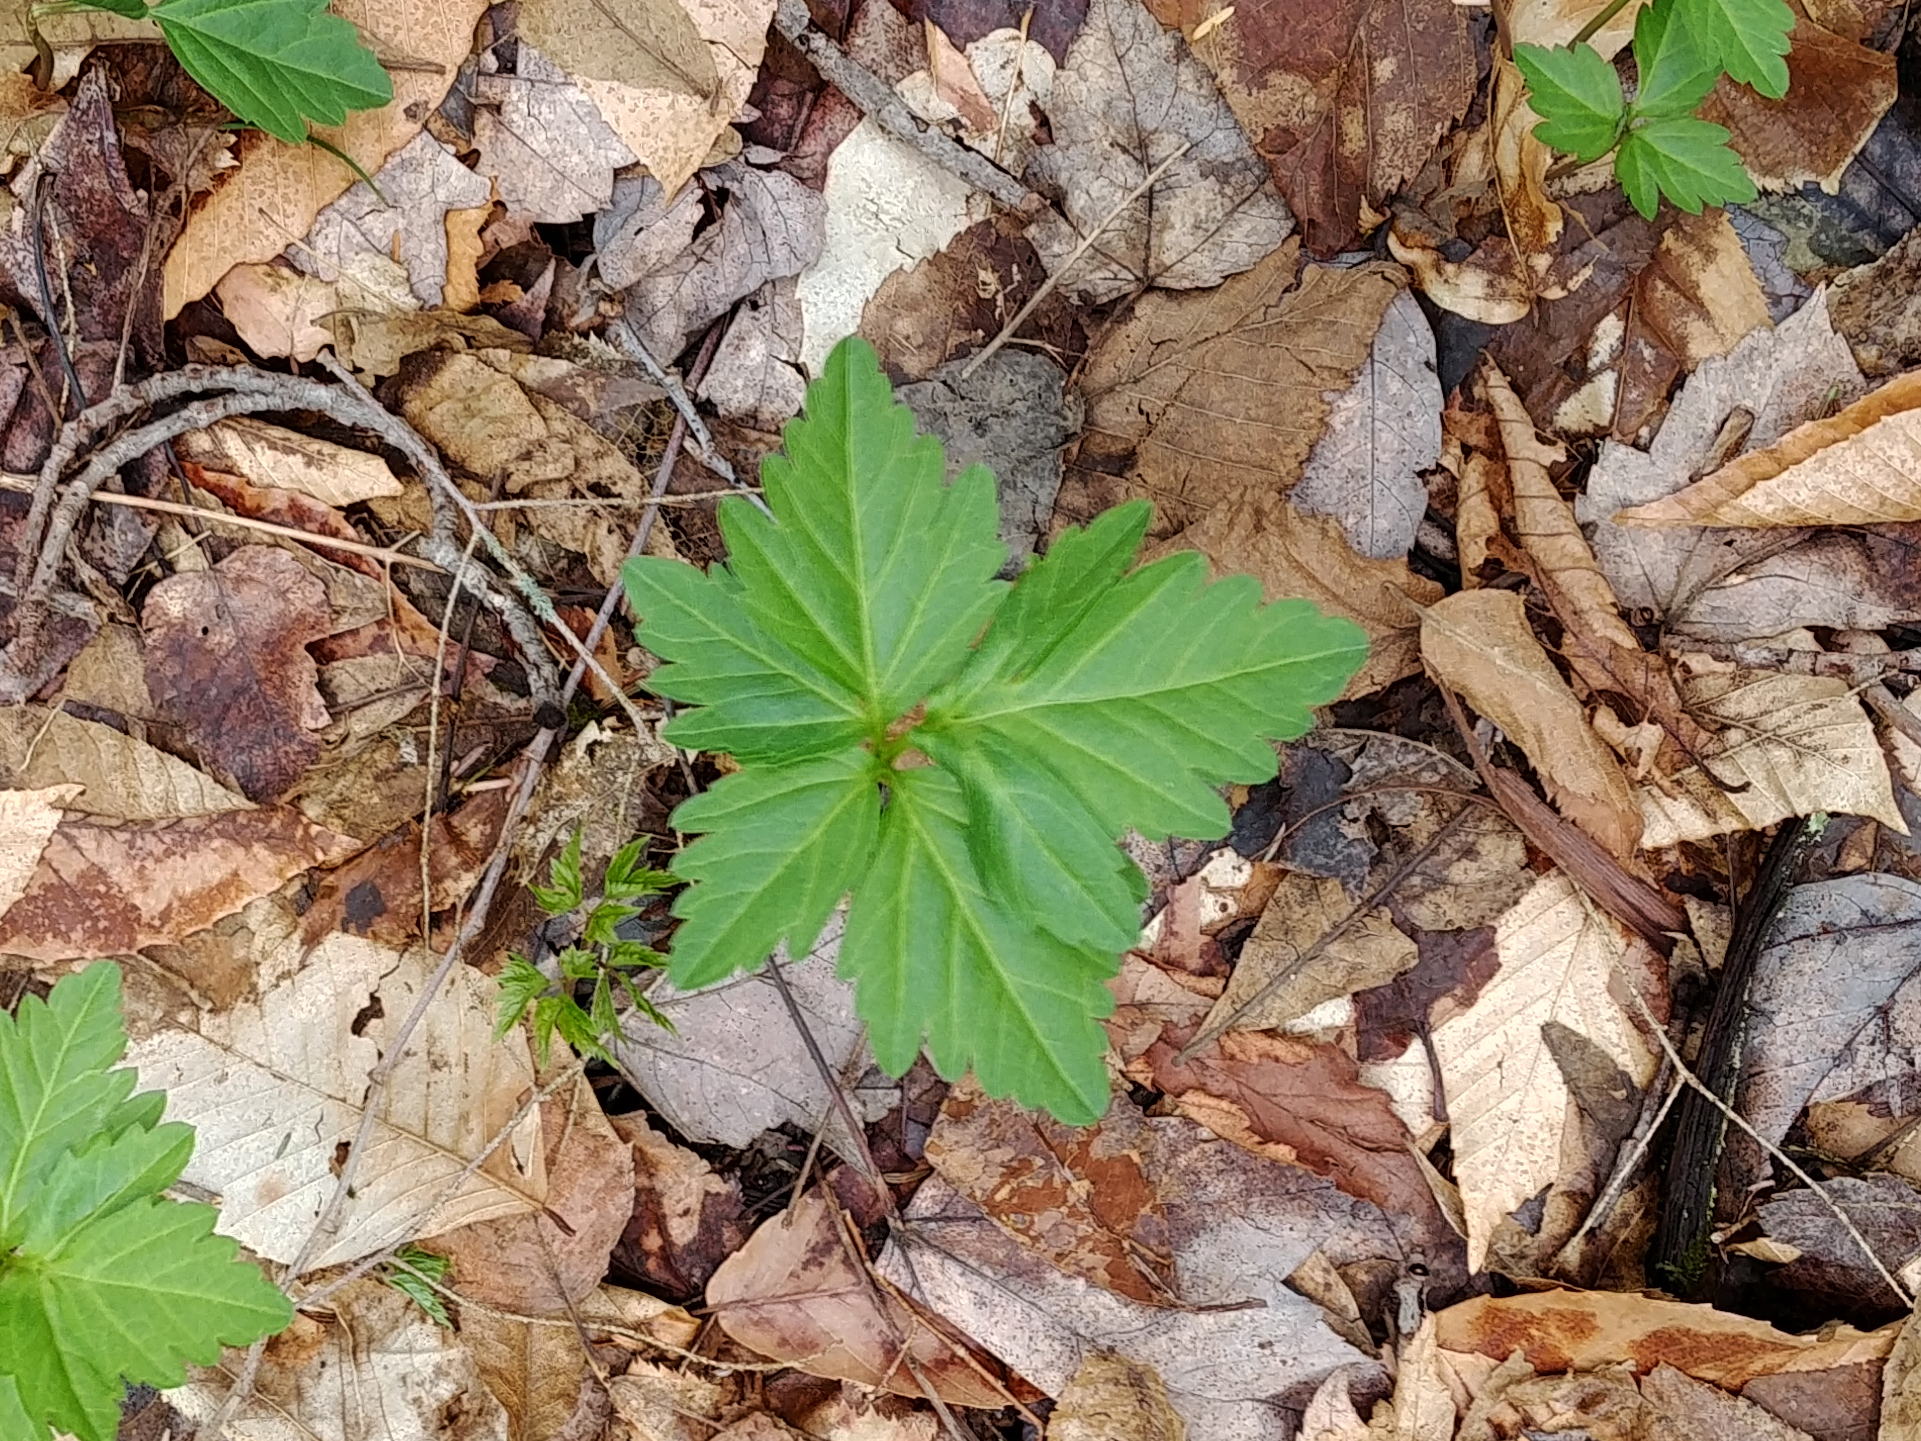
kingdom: Plantae
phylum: Tracheophyta
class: Magnoliopsida
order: Brassicales
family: Brassicaceae
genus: Cardamine
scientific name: Cardamine diphylla
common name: Broad-leaved toothwort
